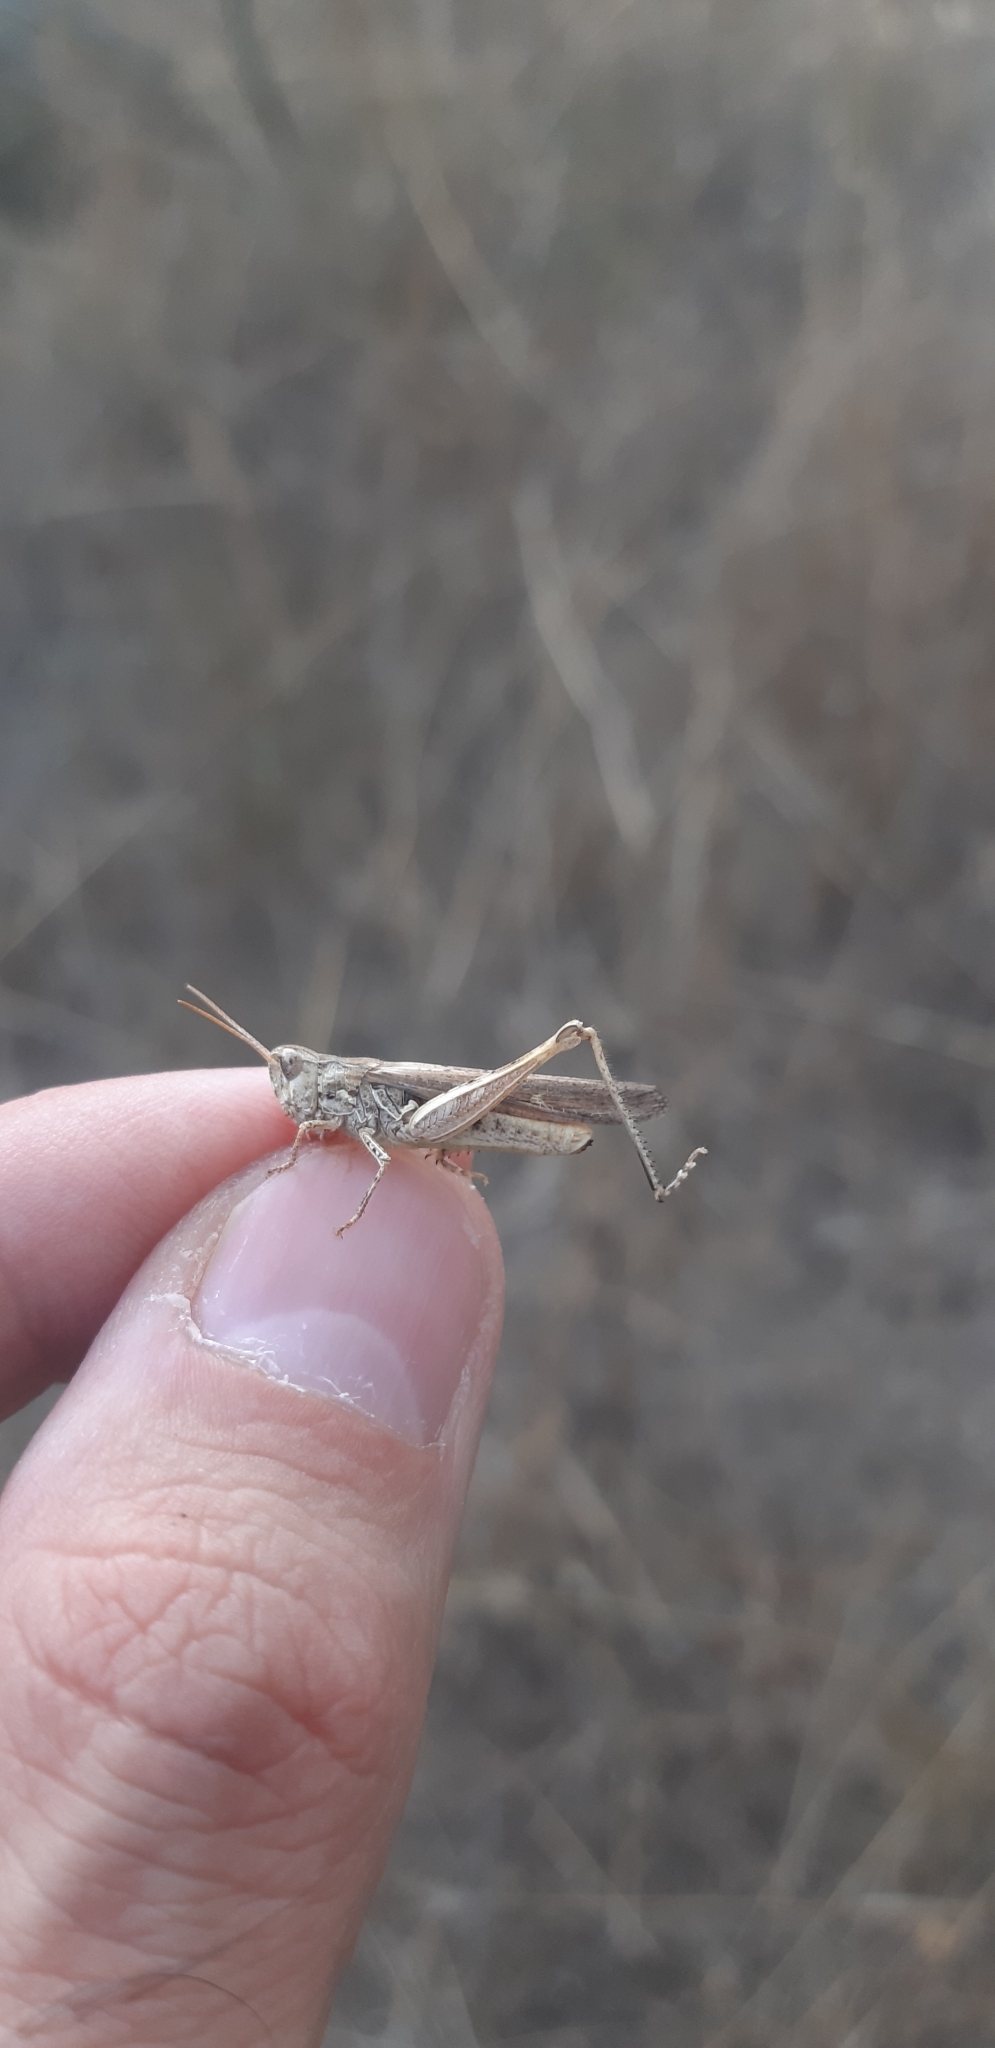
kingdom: Animalia
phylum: Arthropoda
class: Insecta
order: Orthoptera
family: Acrididae
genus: Chorthippus
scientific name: Chorthippus brunneus
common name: Field grasshopper
